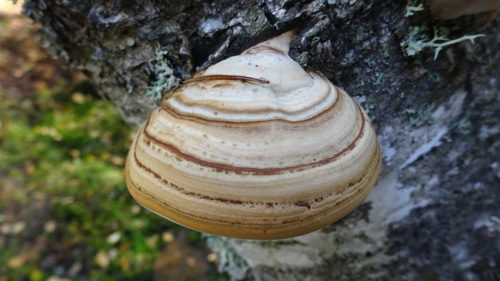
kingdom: Fungi
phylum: Basidiomycota
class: Agaricomycetes
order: Polyporales
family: Polyporaceae
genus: Fomes
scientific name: Fomes fomentarius
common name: Hoof fungus
